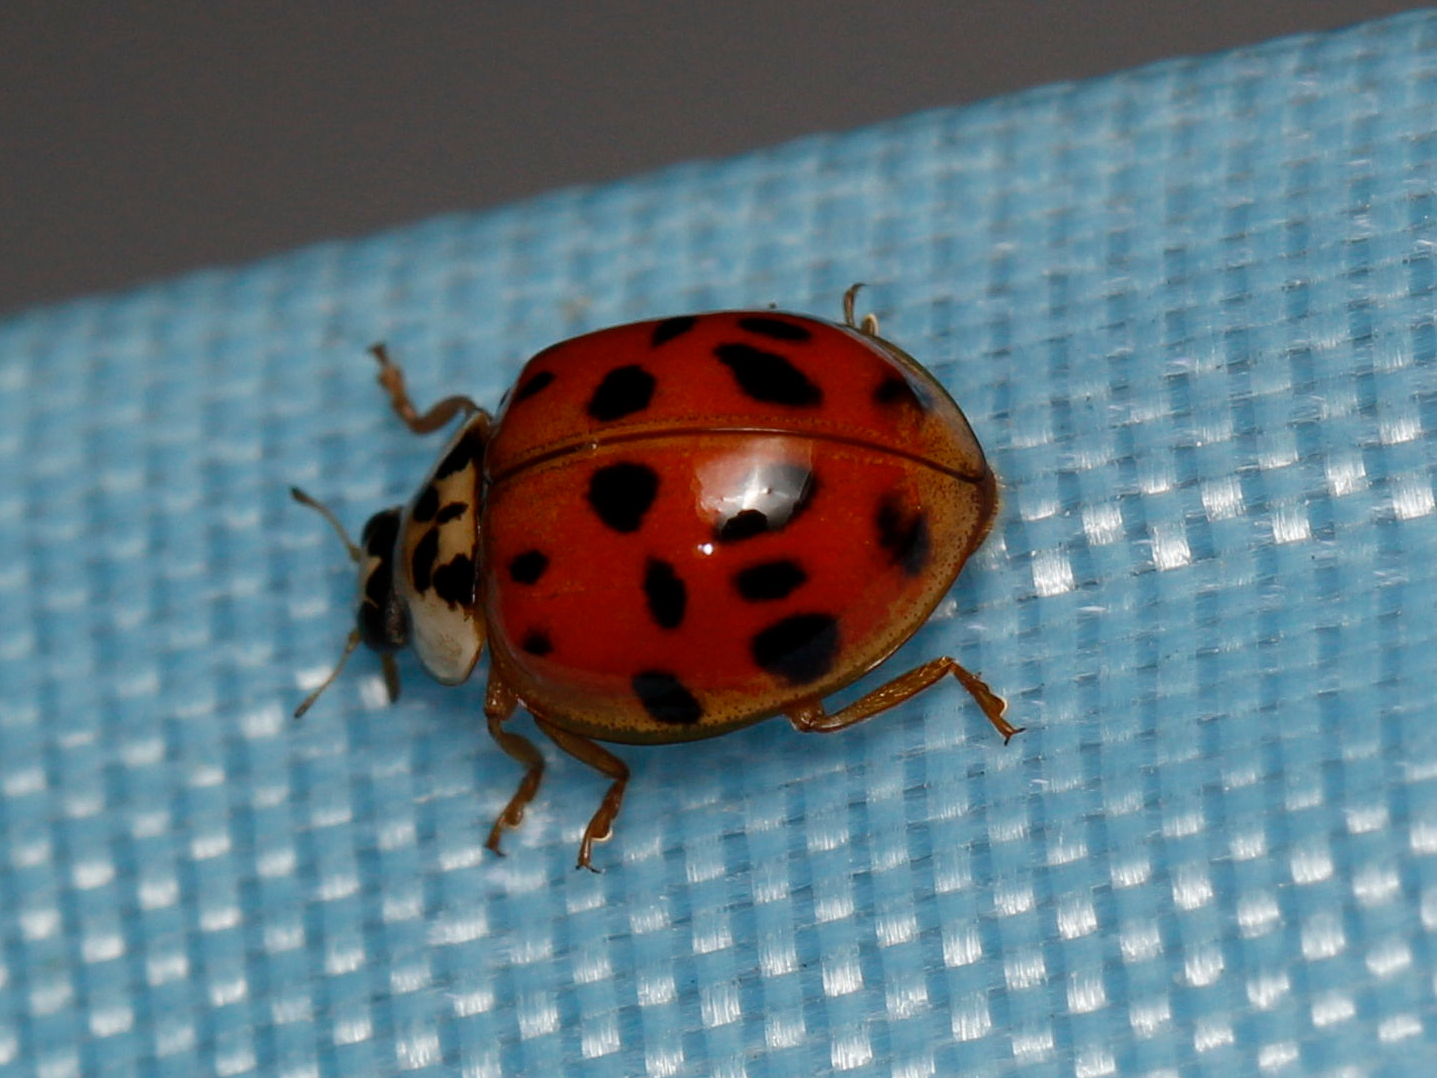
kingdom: Animalia
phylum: Arthropoda
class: Insecta
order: Coleoptera
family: Coccinellidae
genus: Harmonia
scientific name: Harmonia axyridis
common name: Harlequin ladybird
